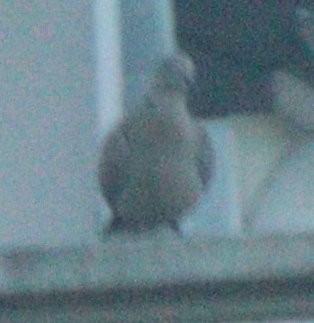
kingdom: Animalia
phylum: Chordata
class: Aves
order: Columbiformes
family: Columbidae
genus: Streptopelia
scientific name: Streptopelia decaocto
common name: Eurasian collared dove
